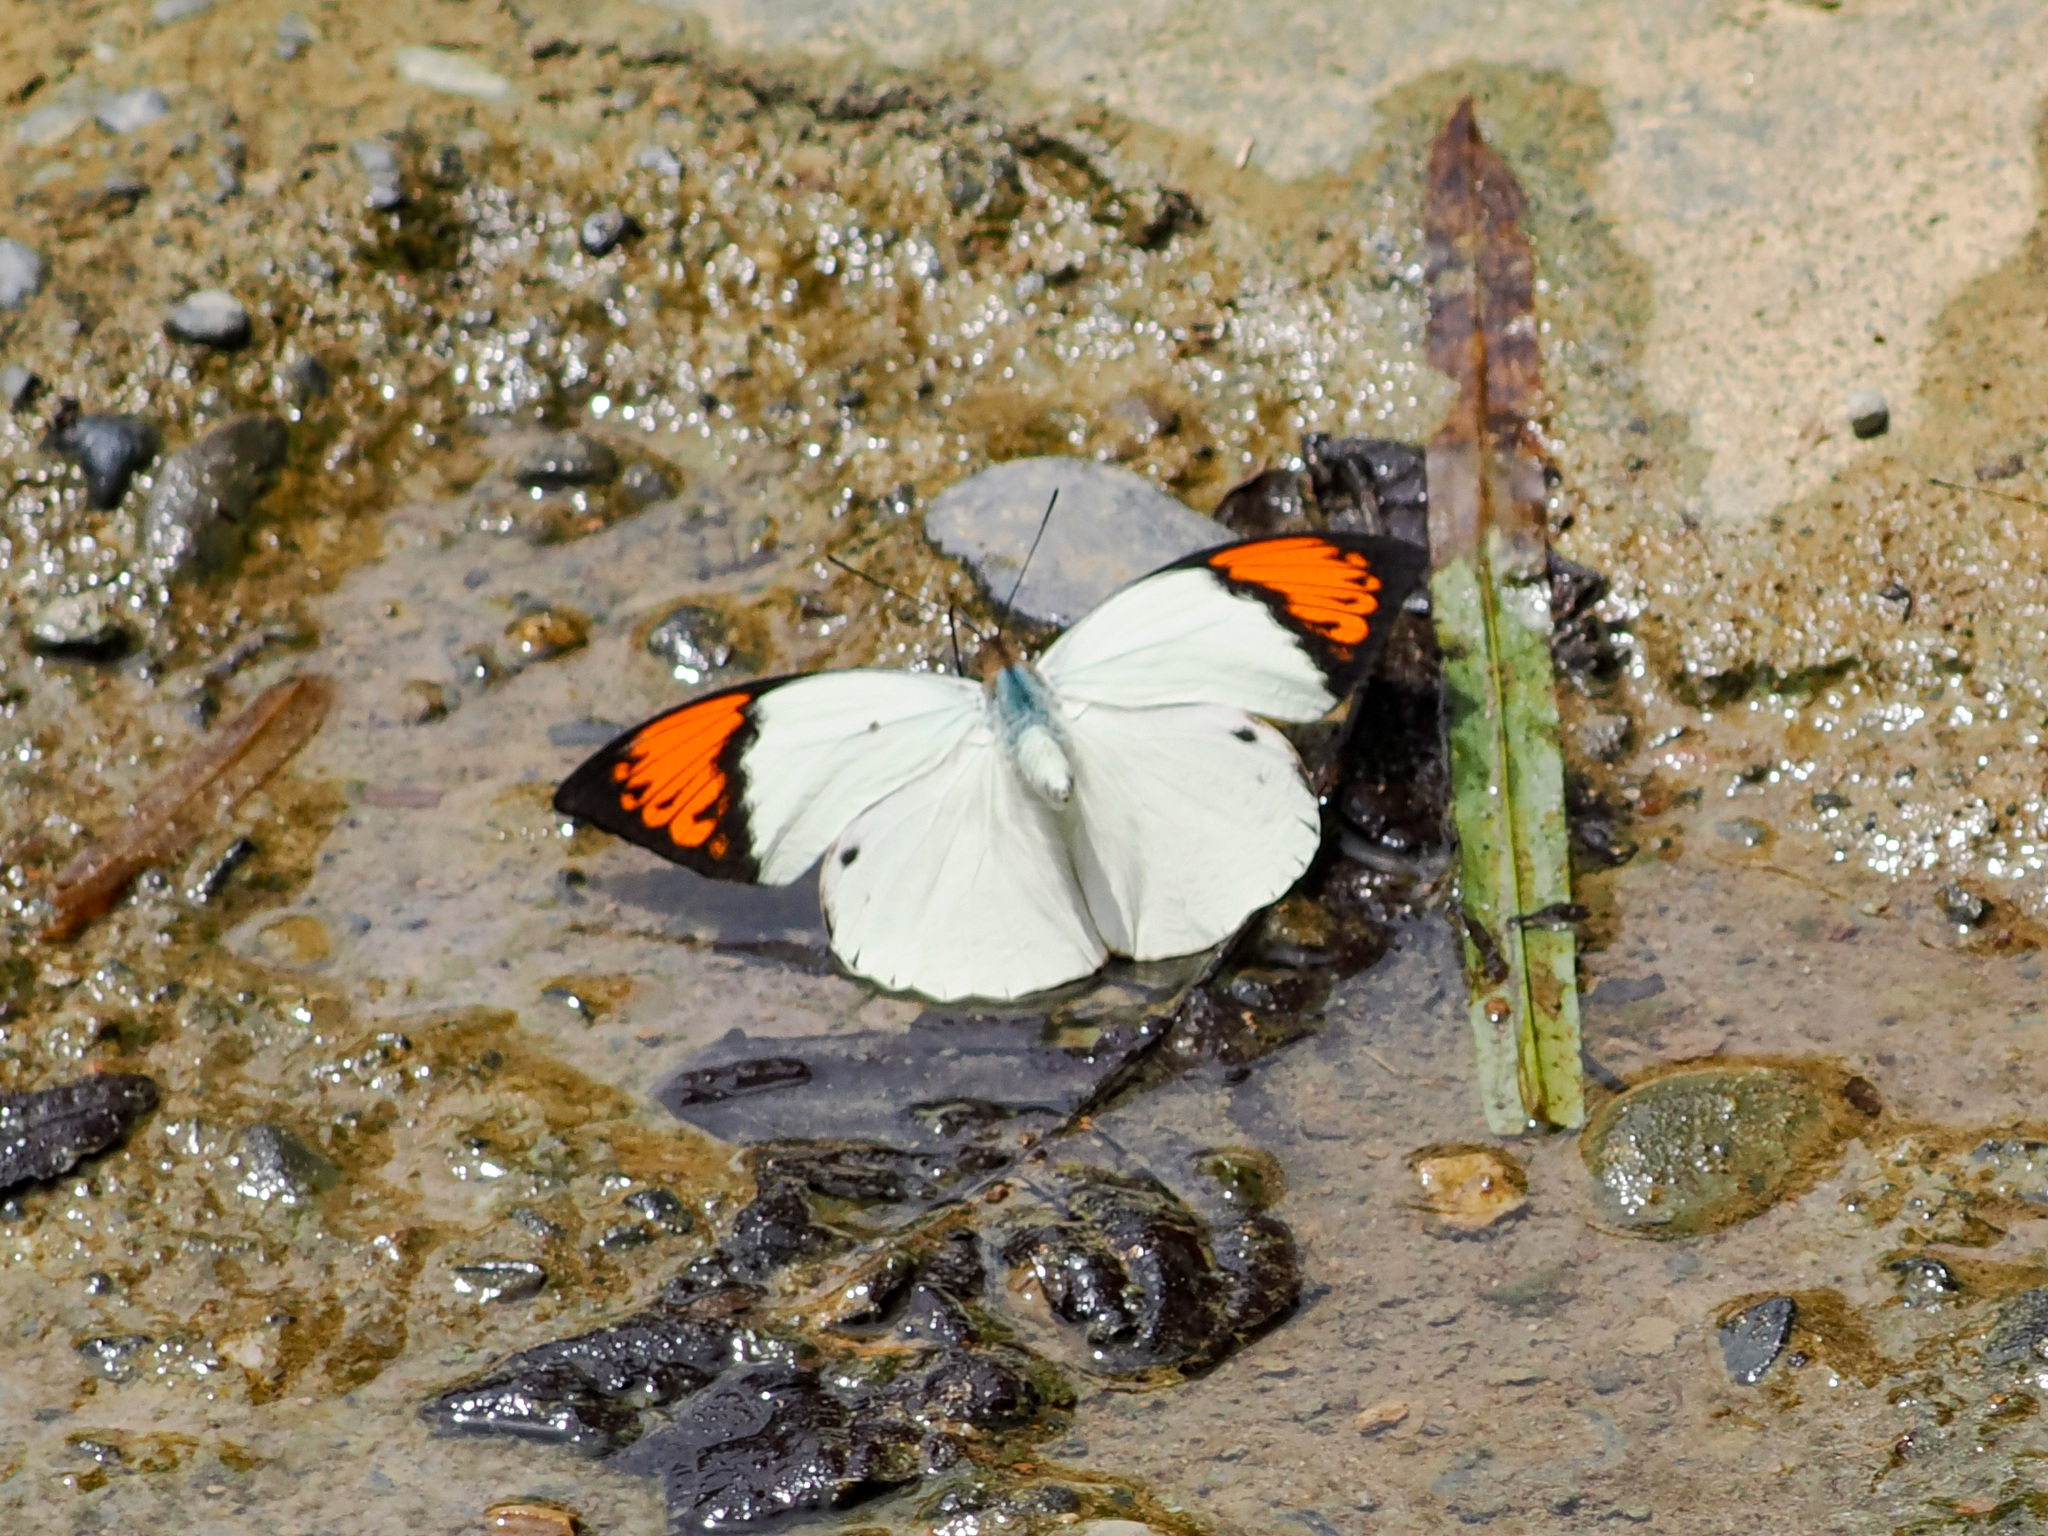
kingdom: Animalia
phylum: Arthropoda
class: Insecta
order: Lepidoptera
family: Pieridae
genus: Hebomoia
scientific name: Hebomoia glaucippe
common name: Great orange tip
